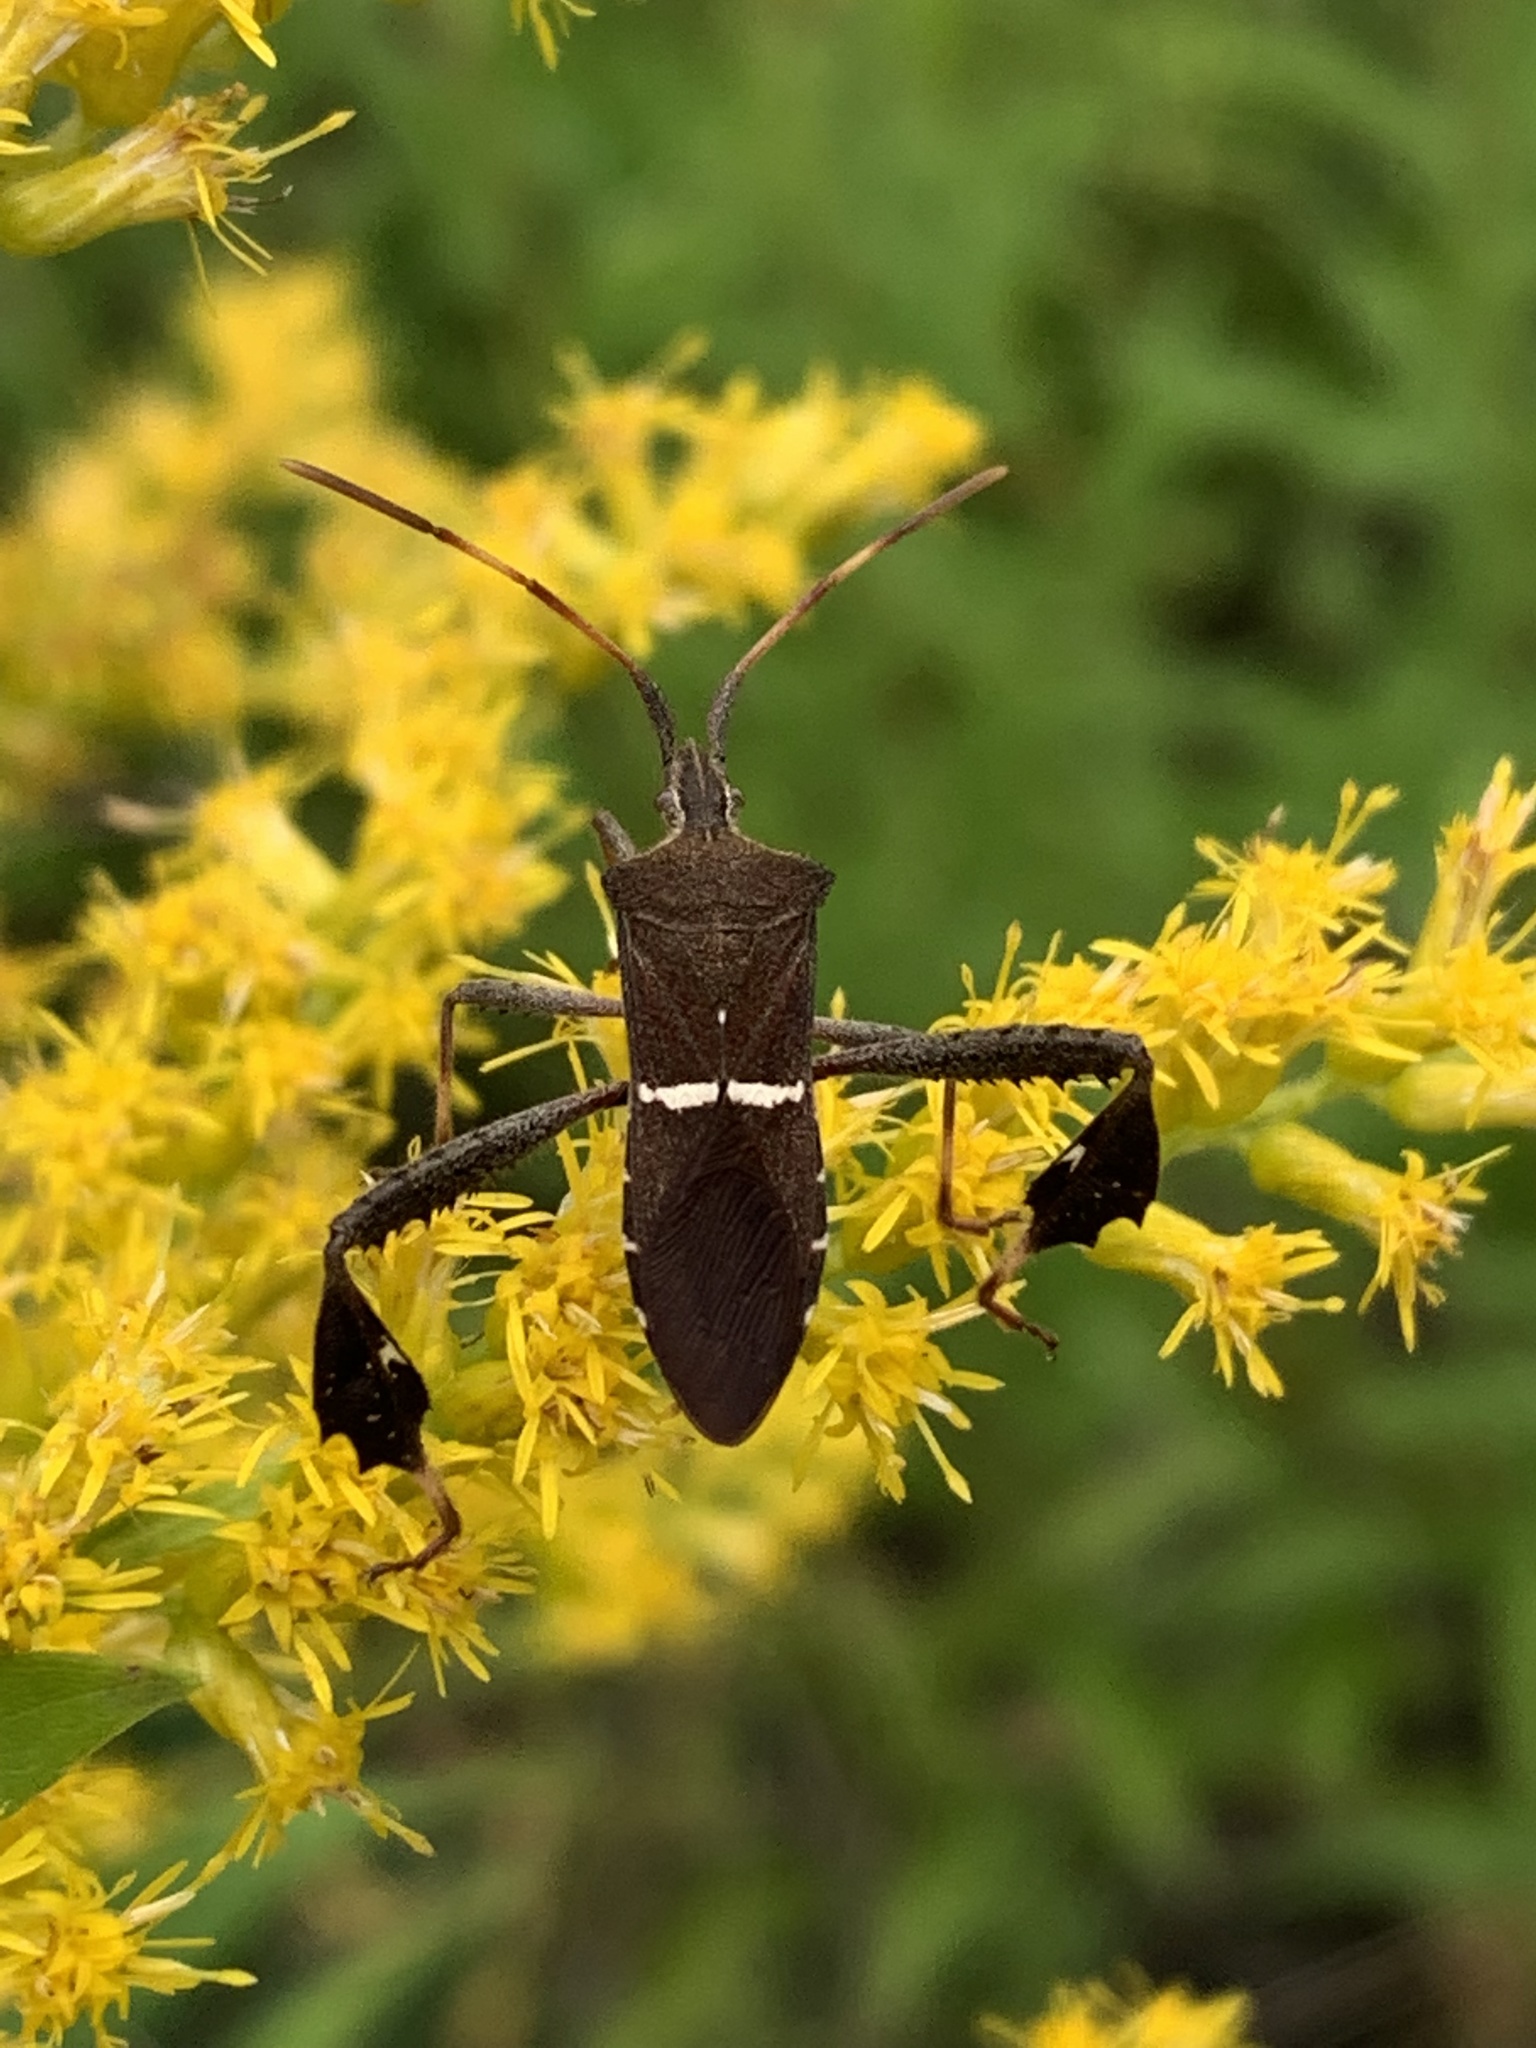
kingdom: Animalia
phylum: Arthropoda
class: Insecta
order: Hemiptera
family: Coreidae
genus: Leptoglossus
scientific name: Leptoglossus phyllopus
